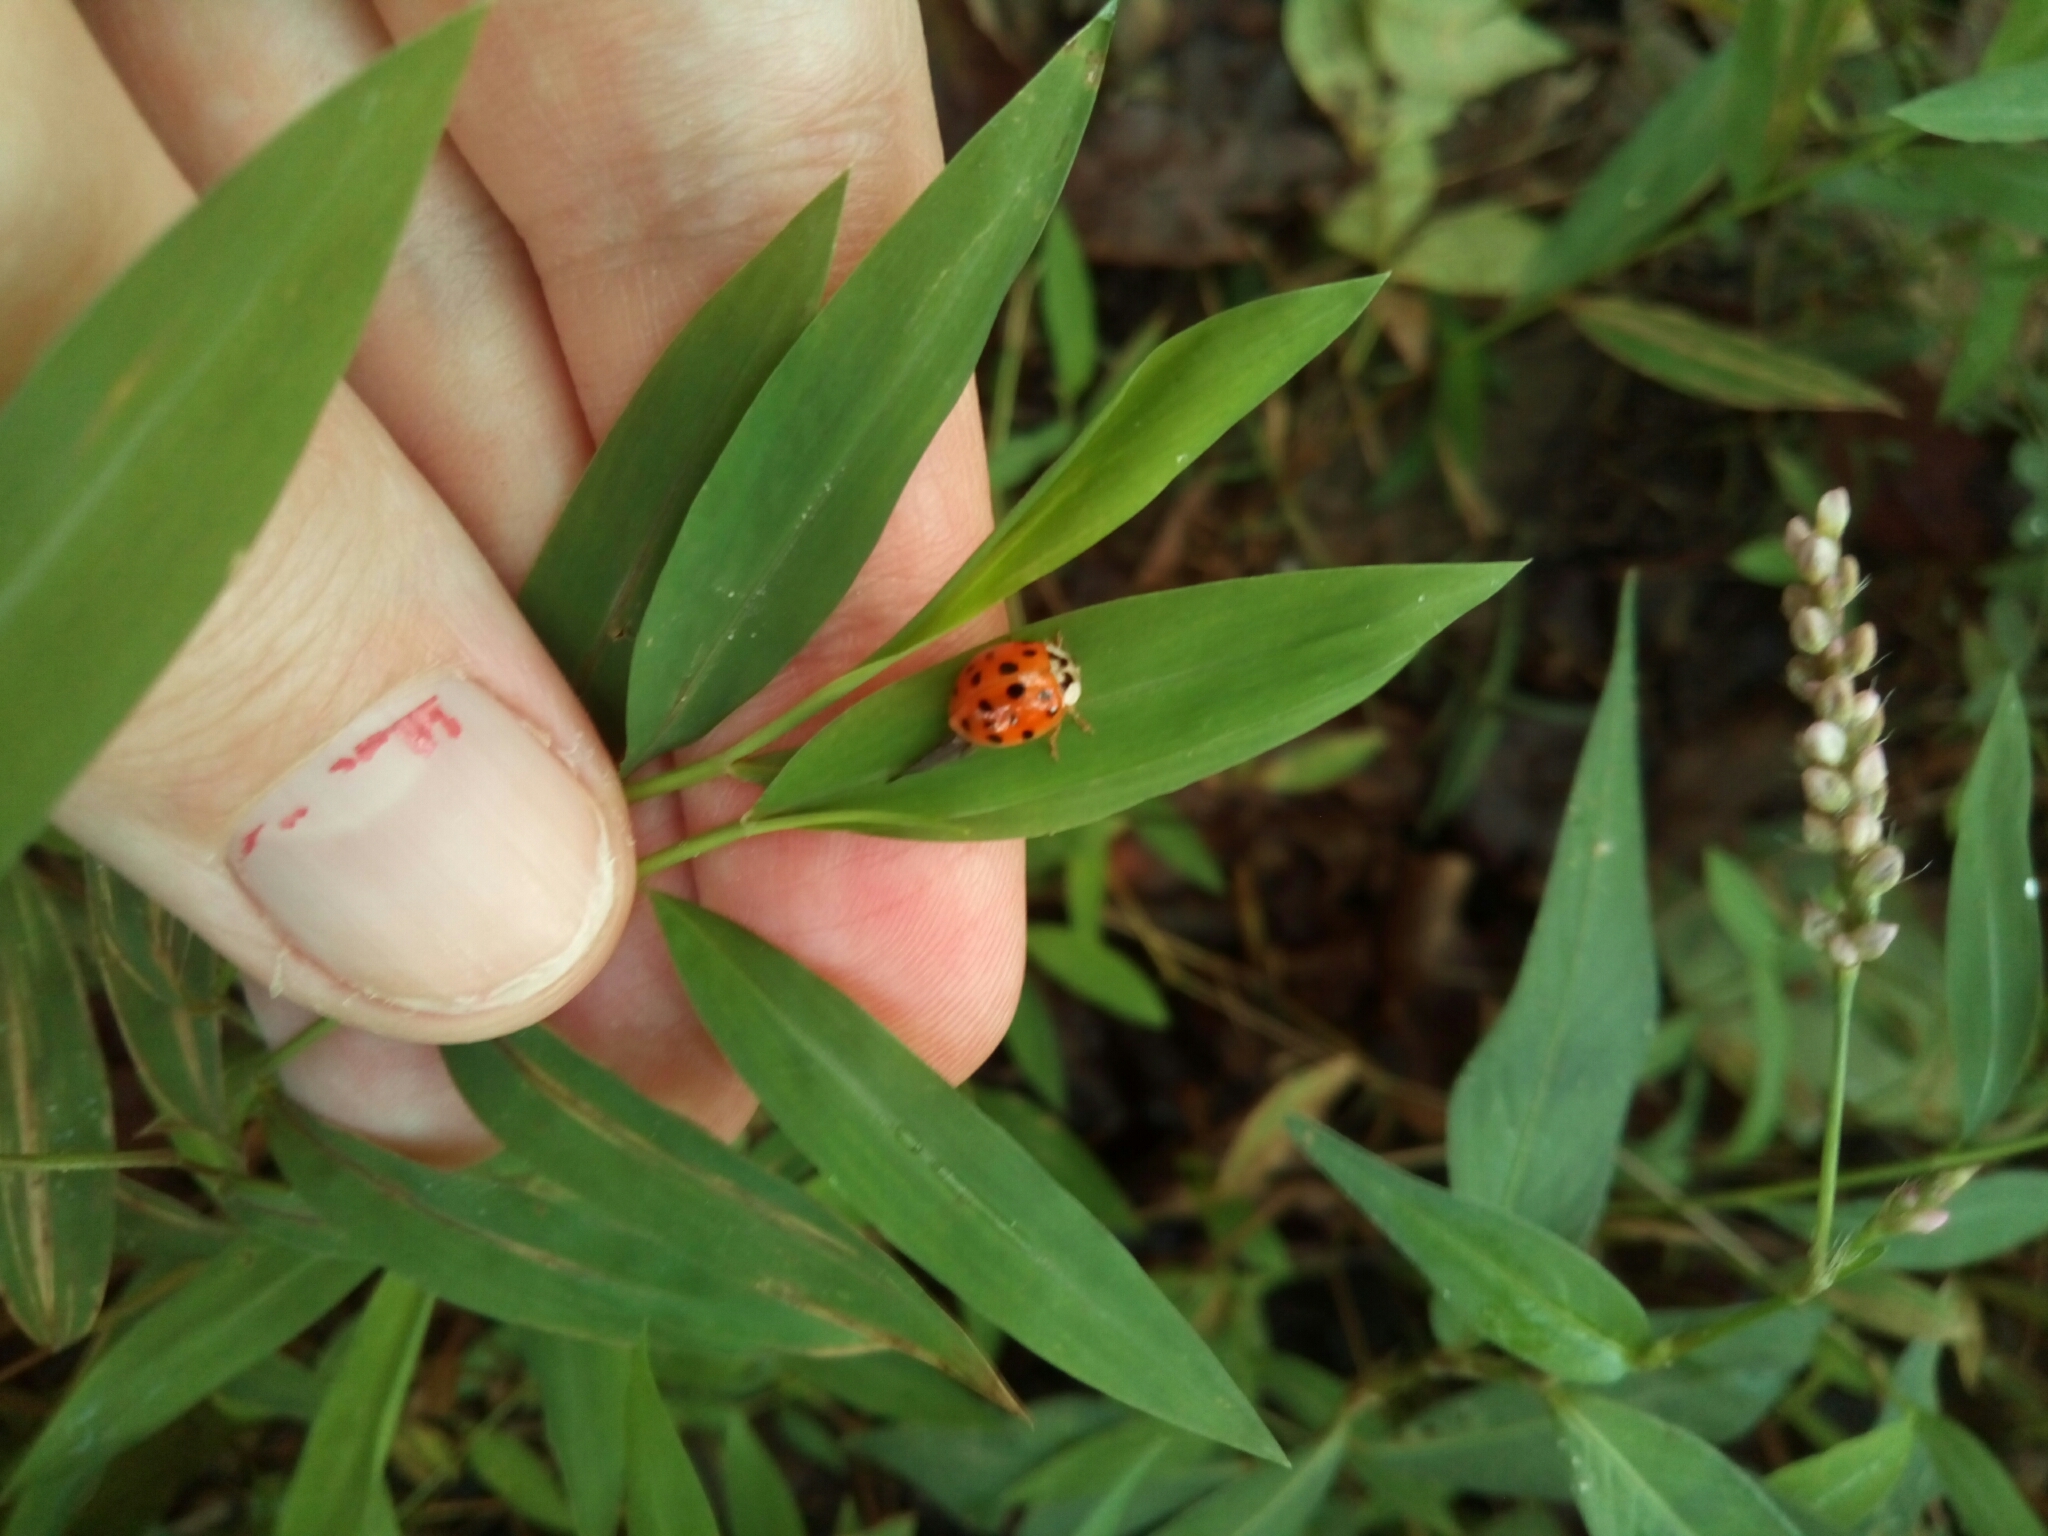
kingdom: Animalia
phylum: Arthropoda
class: Insecta
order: Coleoptera
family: Coccinellidae
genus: Harmonia
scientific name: Harmonia axyridis
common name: Harlequin ladybird
